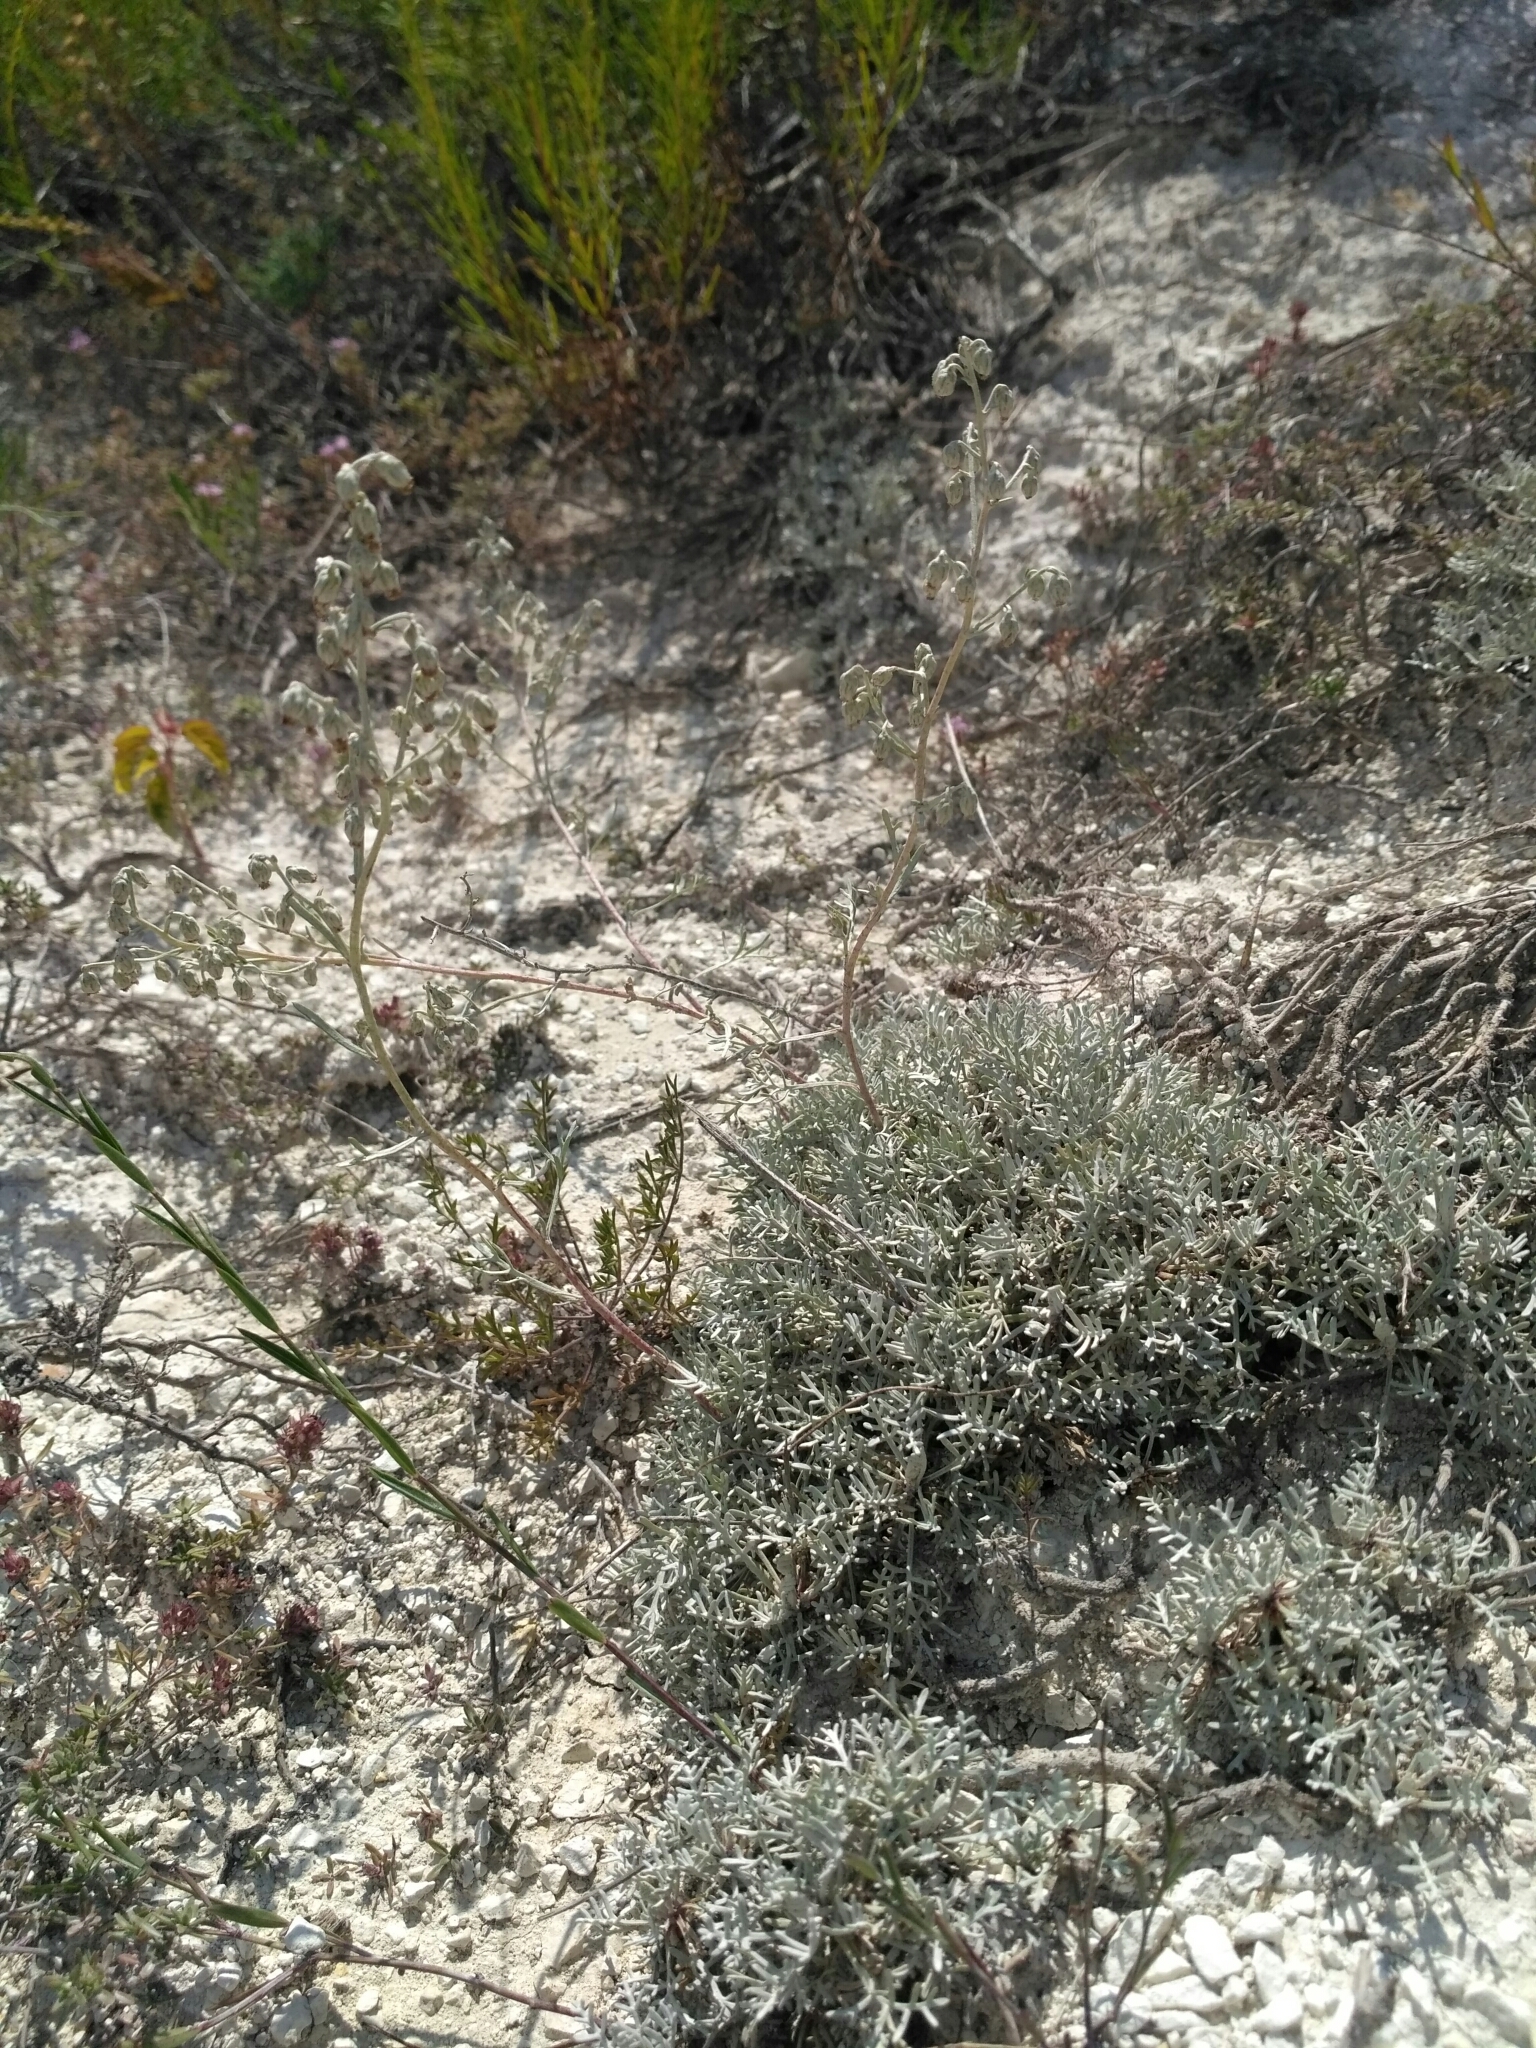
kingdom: Plantae
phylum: Tracheophyta
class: Magnoliopsida
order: Asterales
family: Asteraceae
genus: Artemisia
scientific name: Artemisia hololeuca
